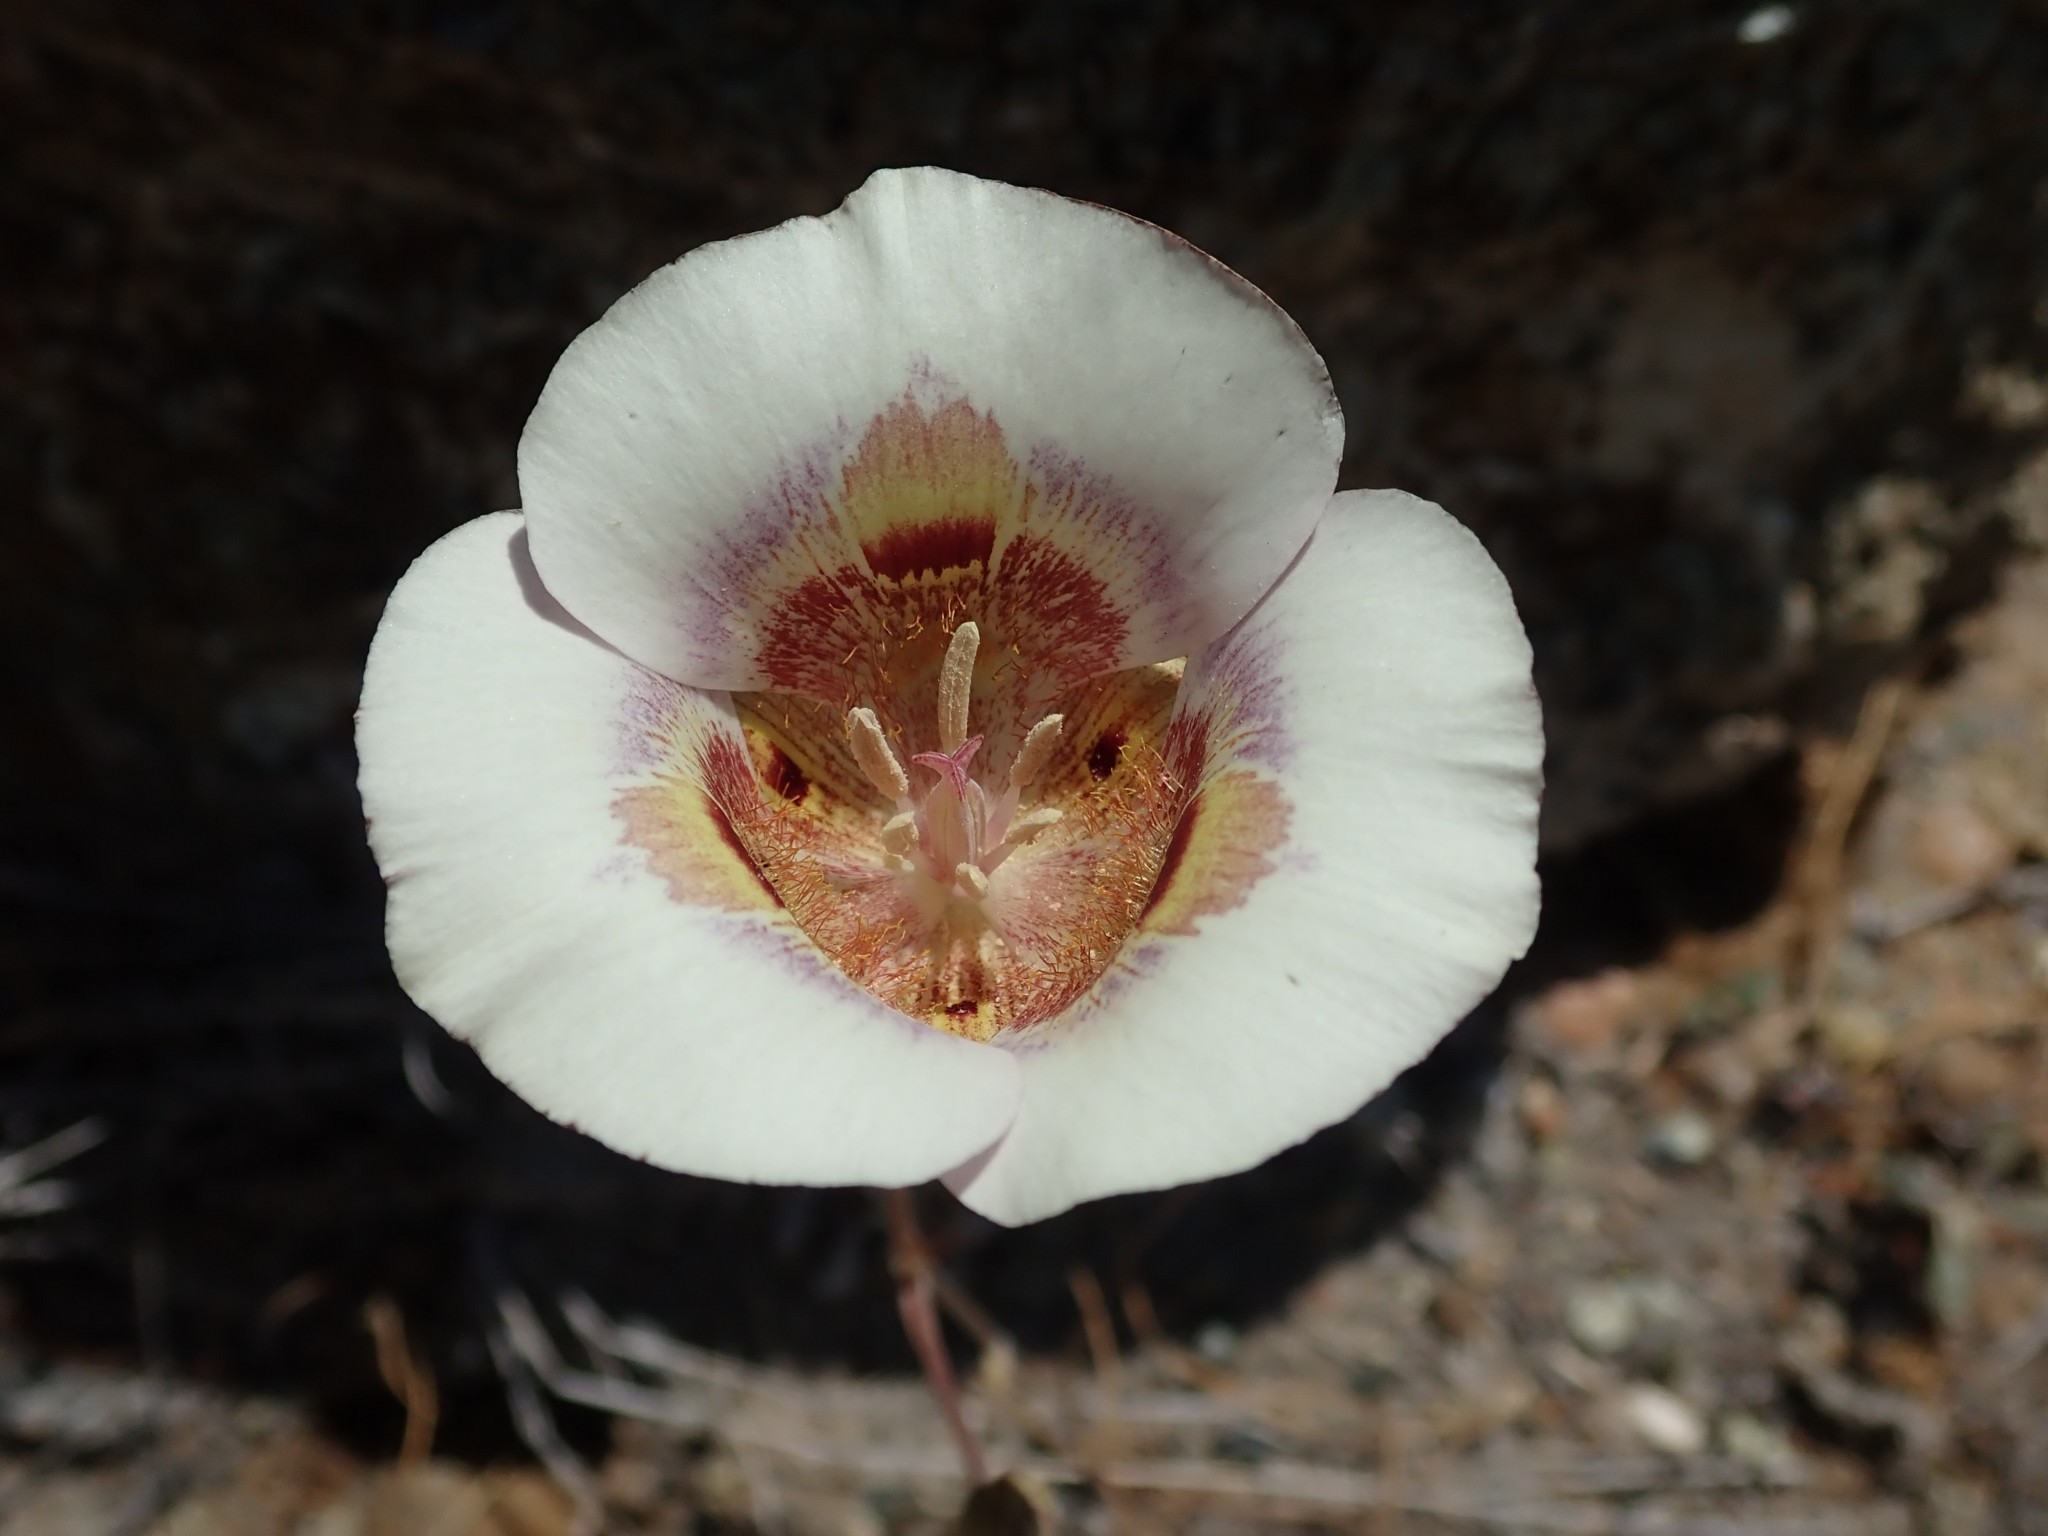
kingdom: Plantae
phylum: Tracheophyta
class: Liliopsida
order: Liliales
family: Liliaceae
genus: Calochortus
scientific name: Calochortus argillosus
